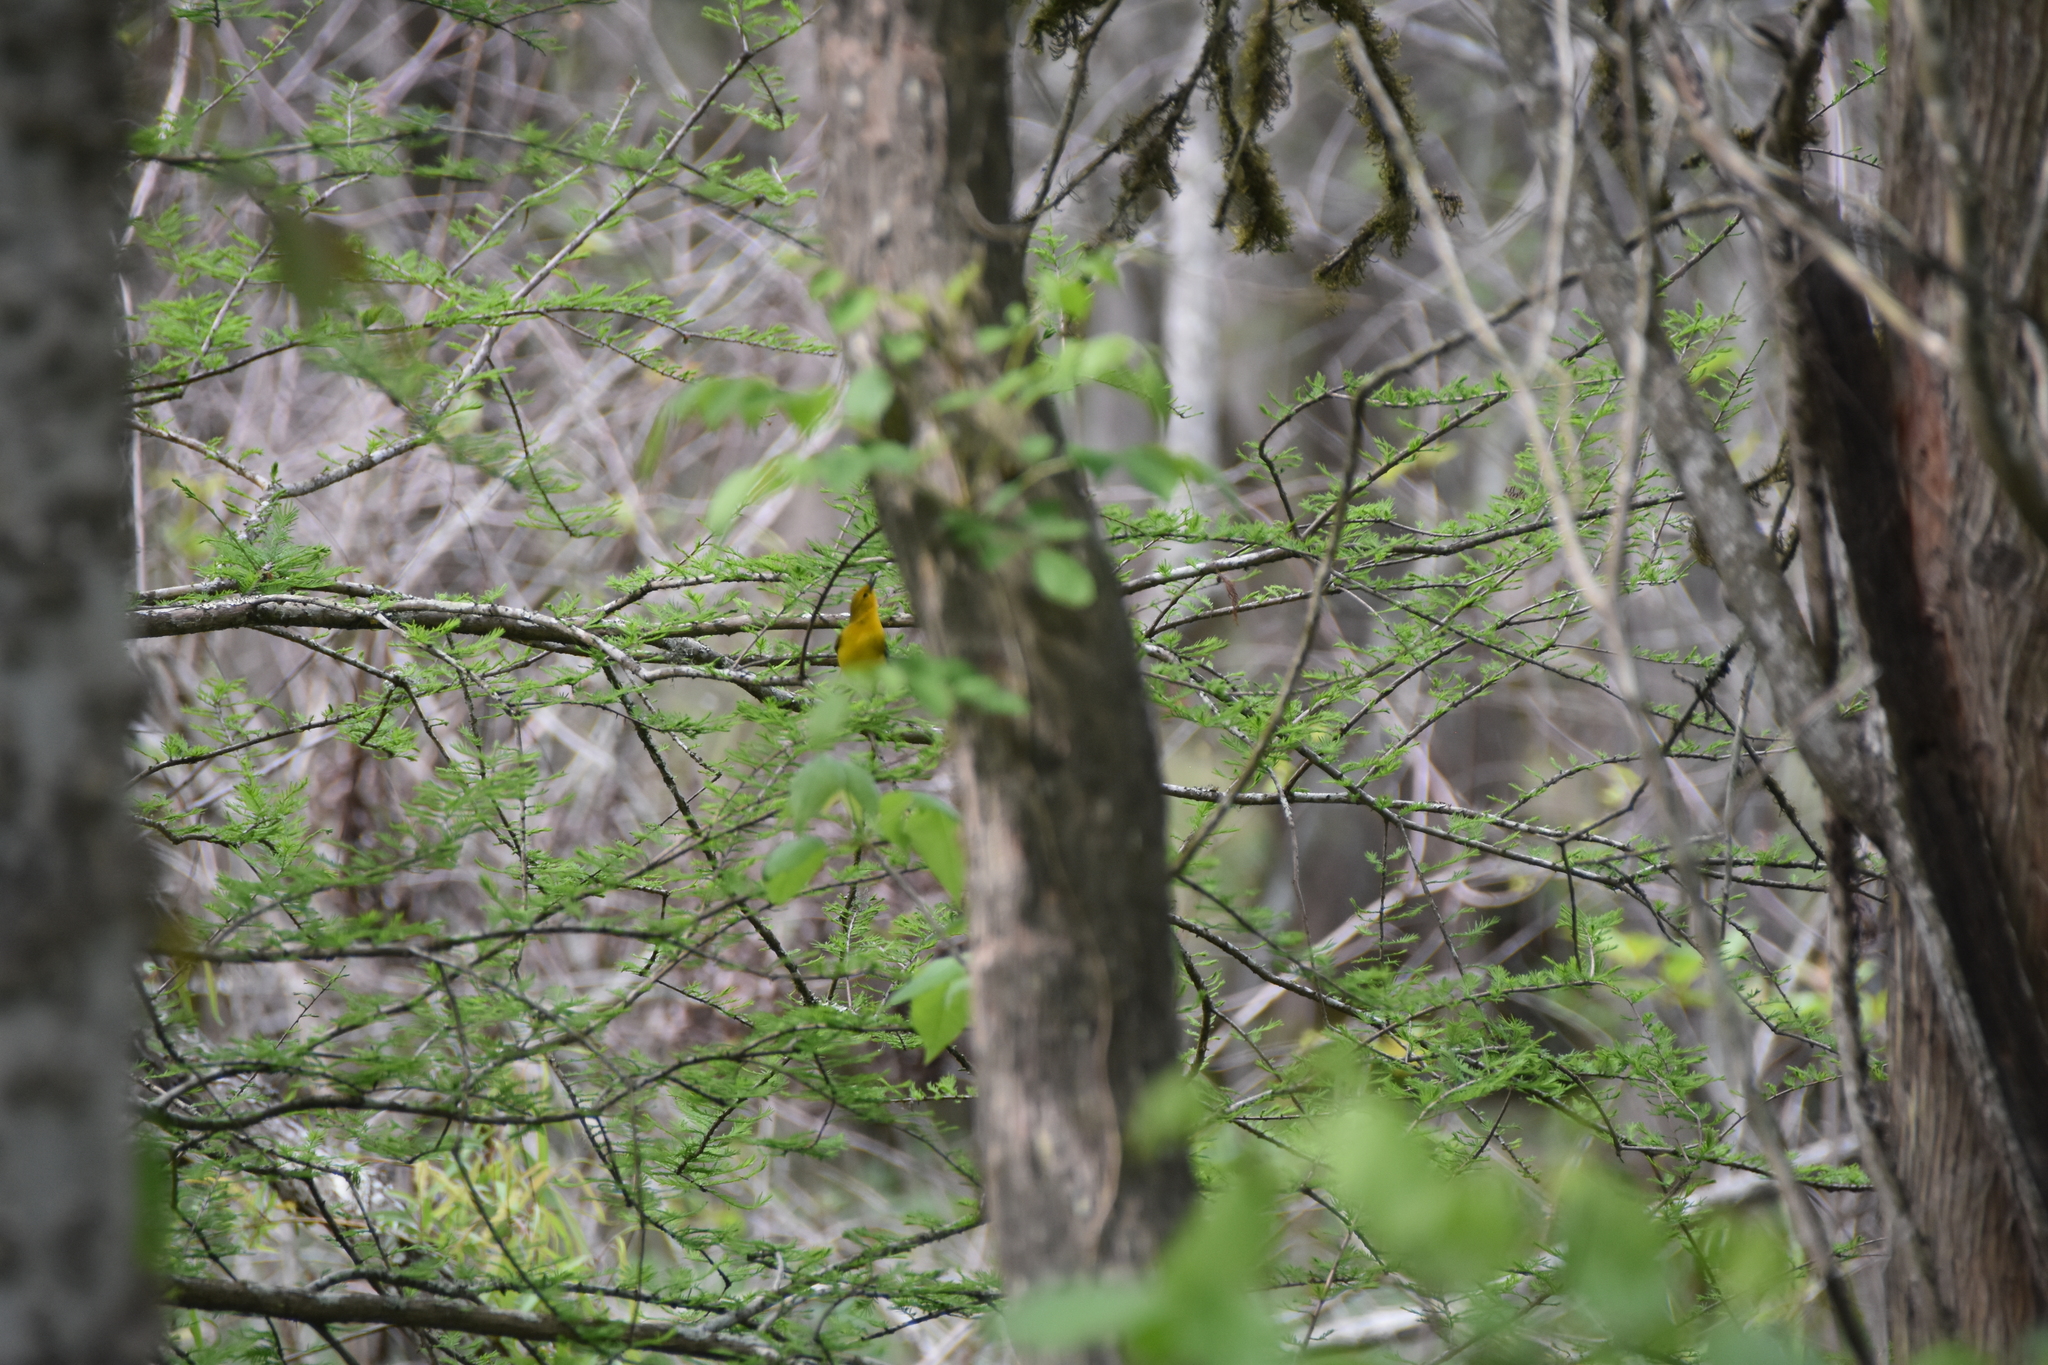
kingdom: Animalia
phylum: Chordata
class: Aves
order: Passeriformes
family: Parulidae
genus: Protonotaria
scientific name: Protonotaria citrea
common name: Prothonotary warbler
